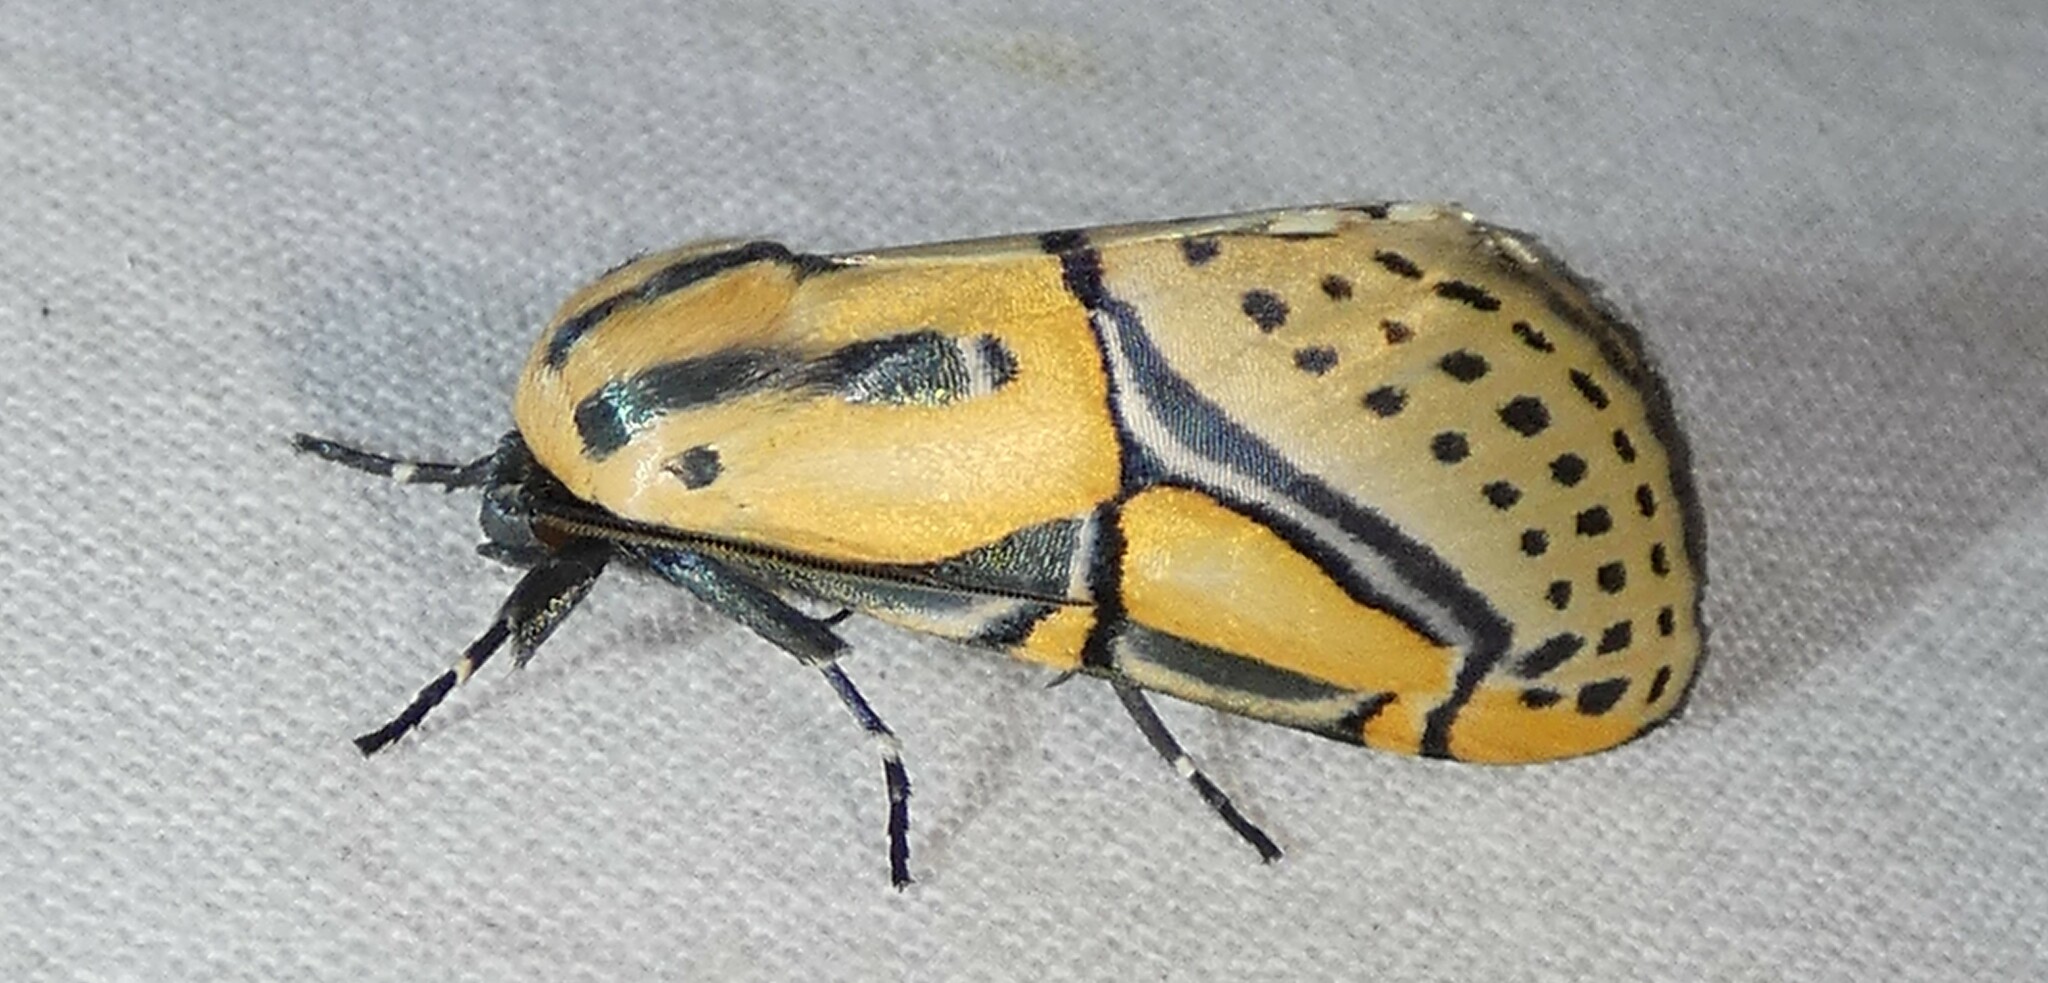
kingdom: Animalia
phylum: Arthropoda
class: Insecta
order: Lepidoptera
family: Erebidae
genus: Diphthera
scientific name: Diphthera festiva
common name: Hieroglyphic moth
